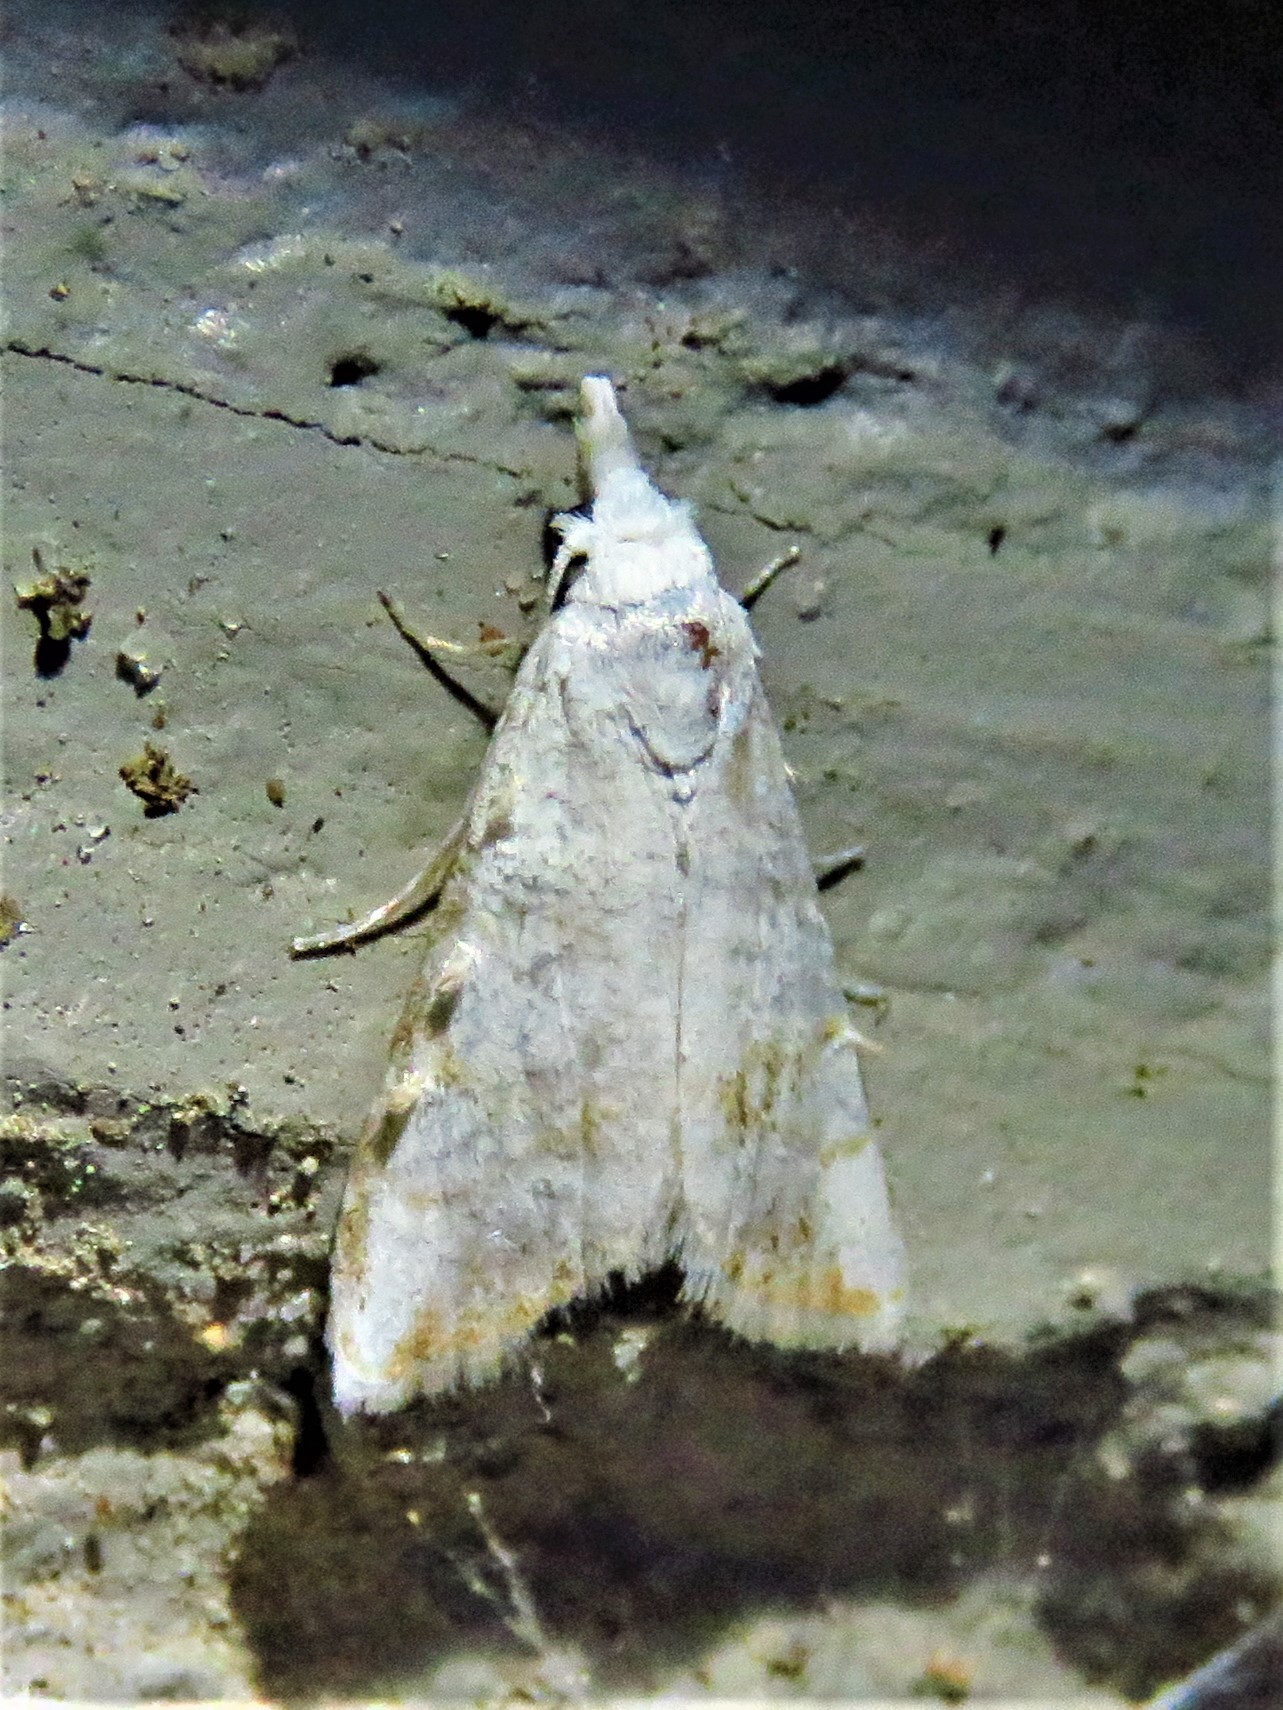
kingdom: Animalia
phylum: Arthropoda
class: Insecta
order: Lepidoptera
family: Nolidae
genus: Nola
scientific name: Nola cereella
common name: Sorghum webworm moth
